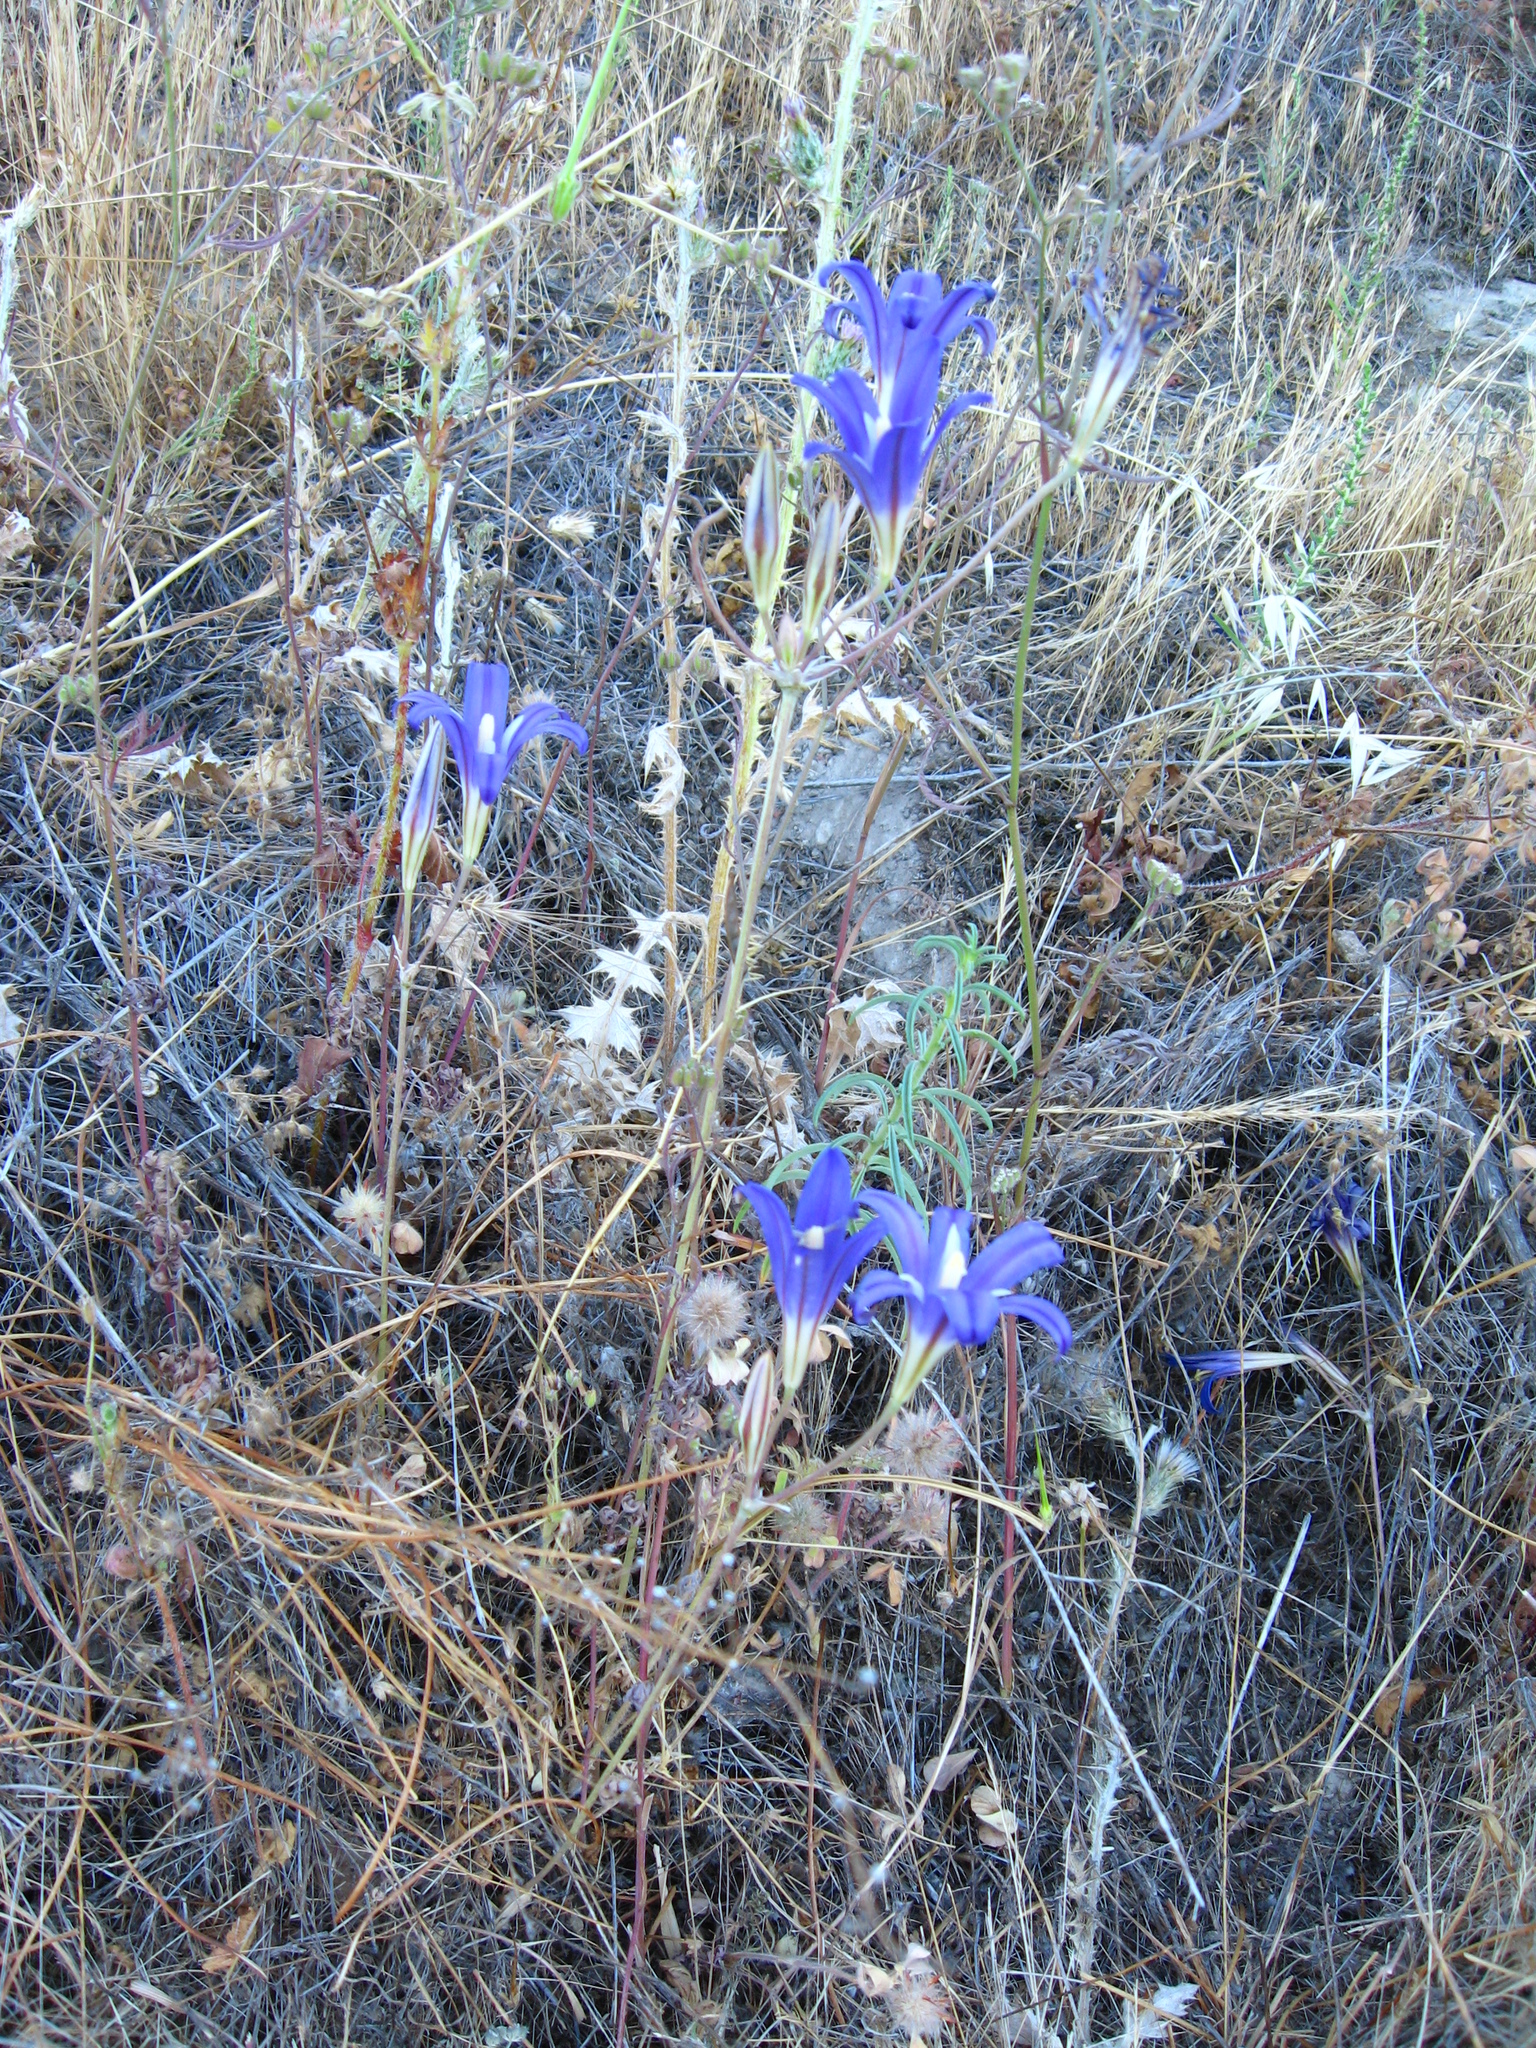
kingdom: Plantae
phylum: Tracheophyta
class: Liliopsida
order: Asparagales
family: Asparagaceae
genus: Brodiaea
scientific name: Brodiaea elegans
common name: Elegant cluster-lily
